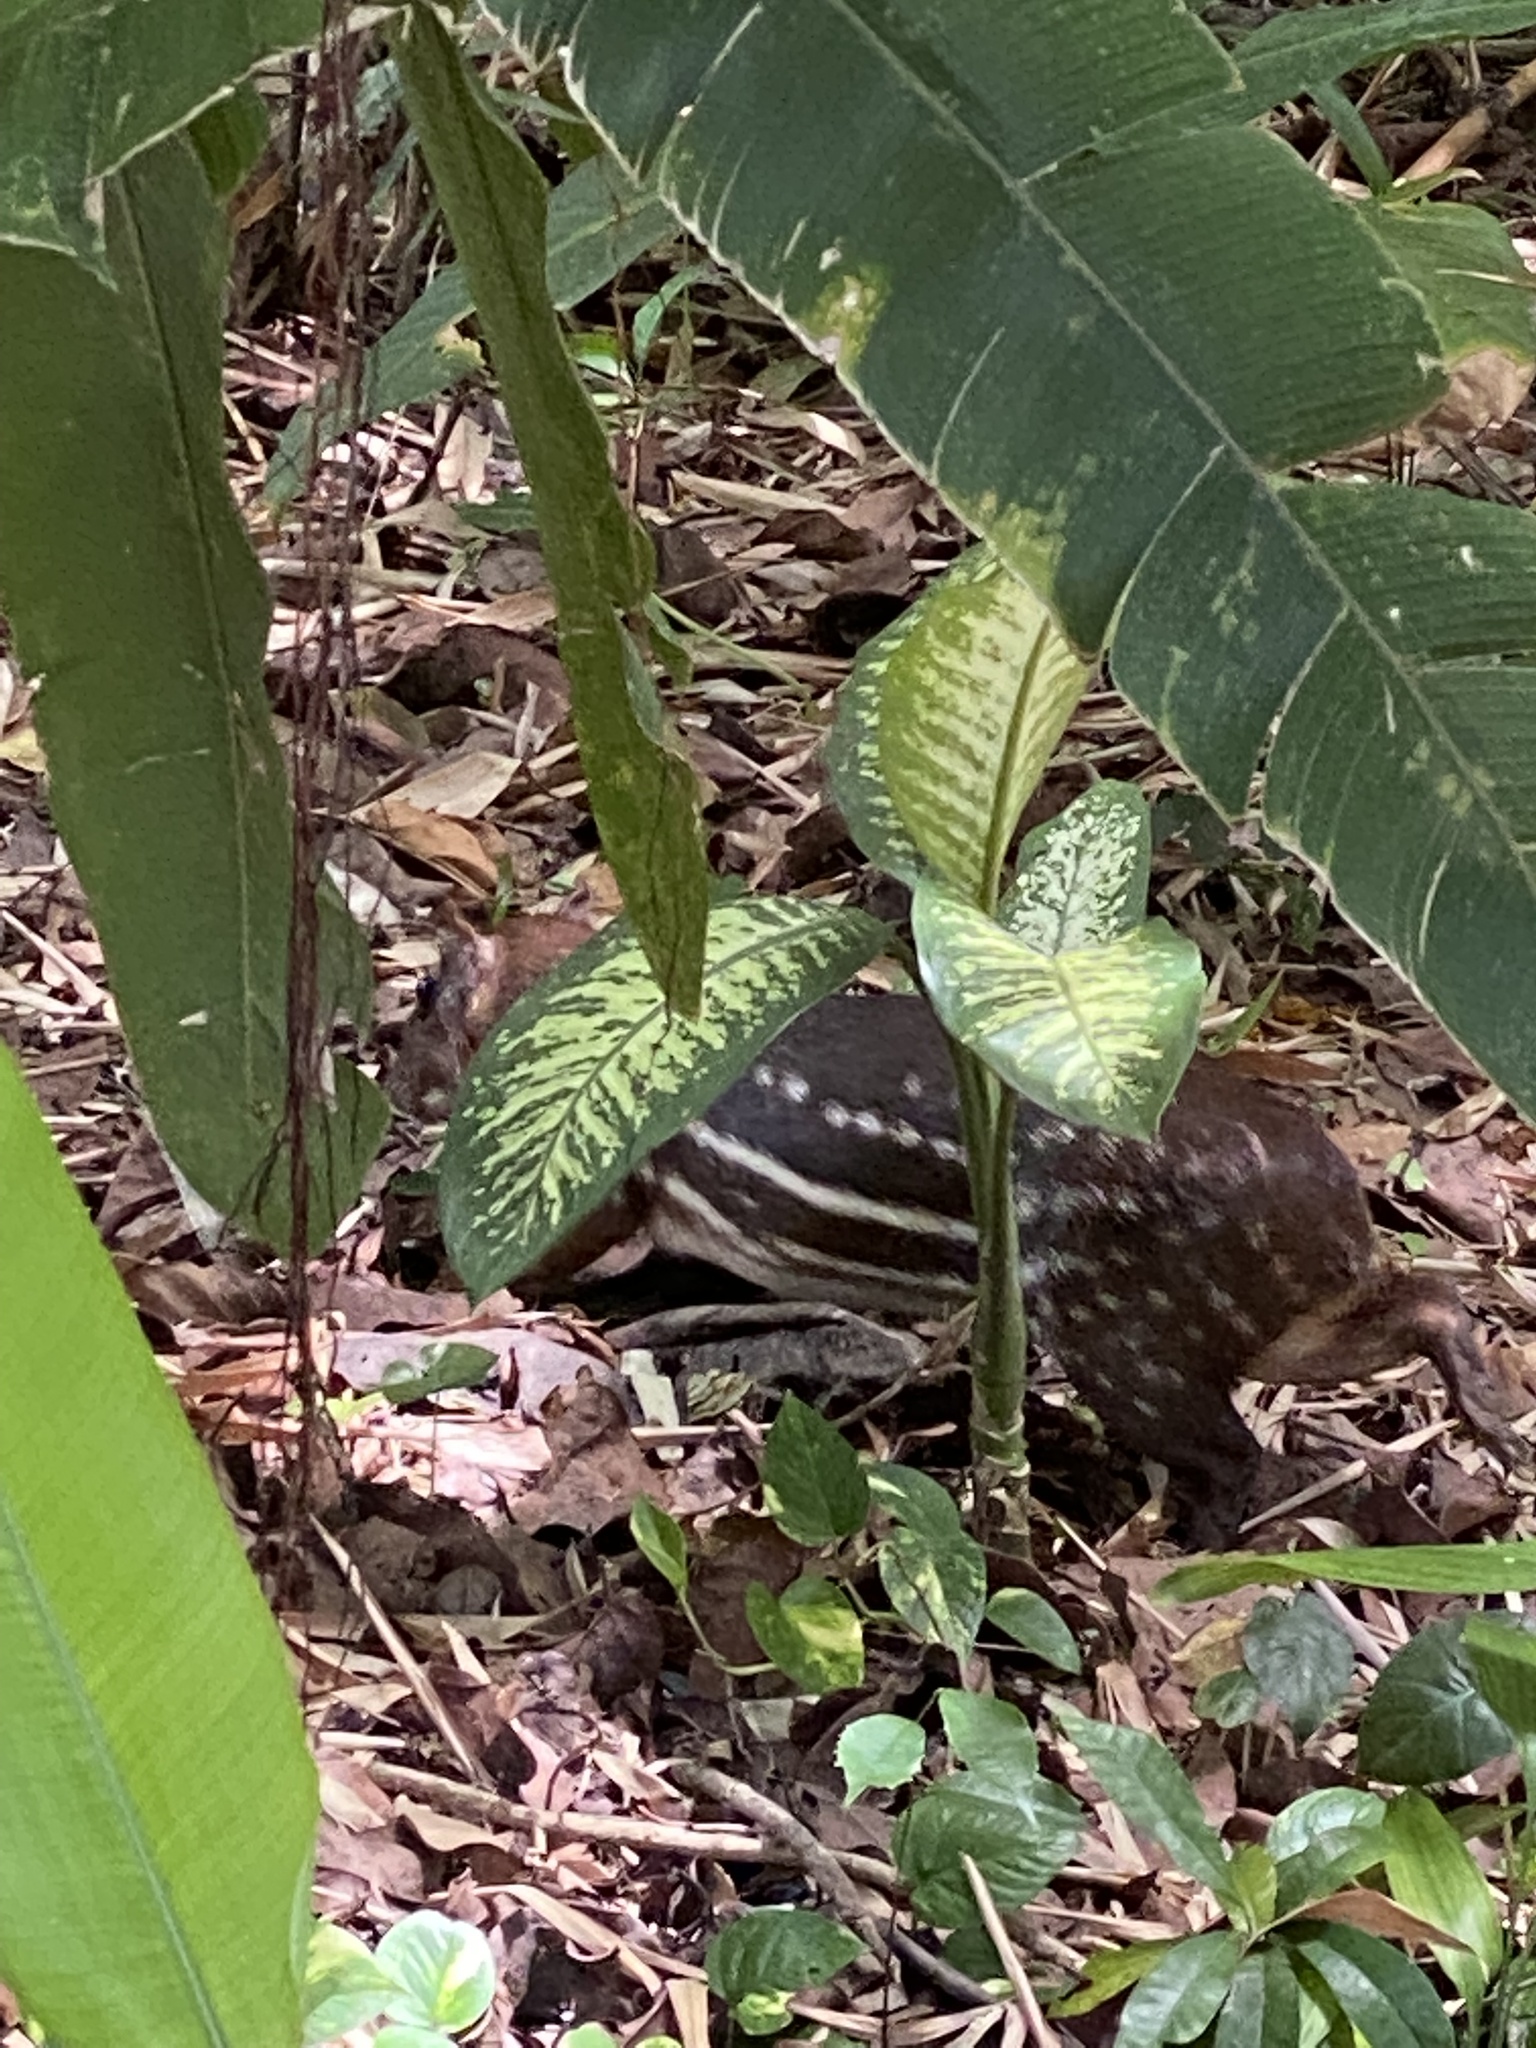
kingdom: Animalia
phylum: Chordata
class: Mammalia
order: Rodentia
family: Cuniculidae
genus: Cuniculus
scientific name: Cuniculus paca
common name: Lowland paca
